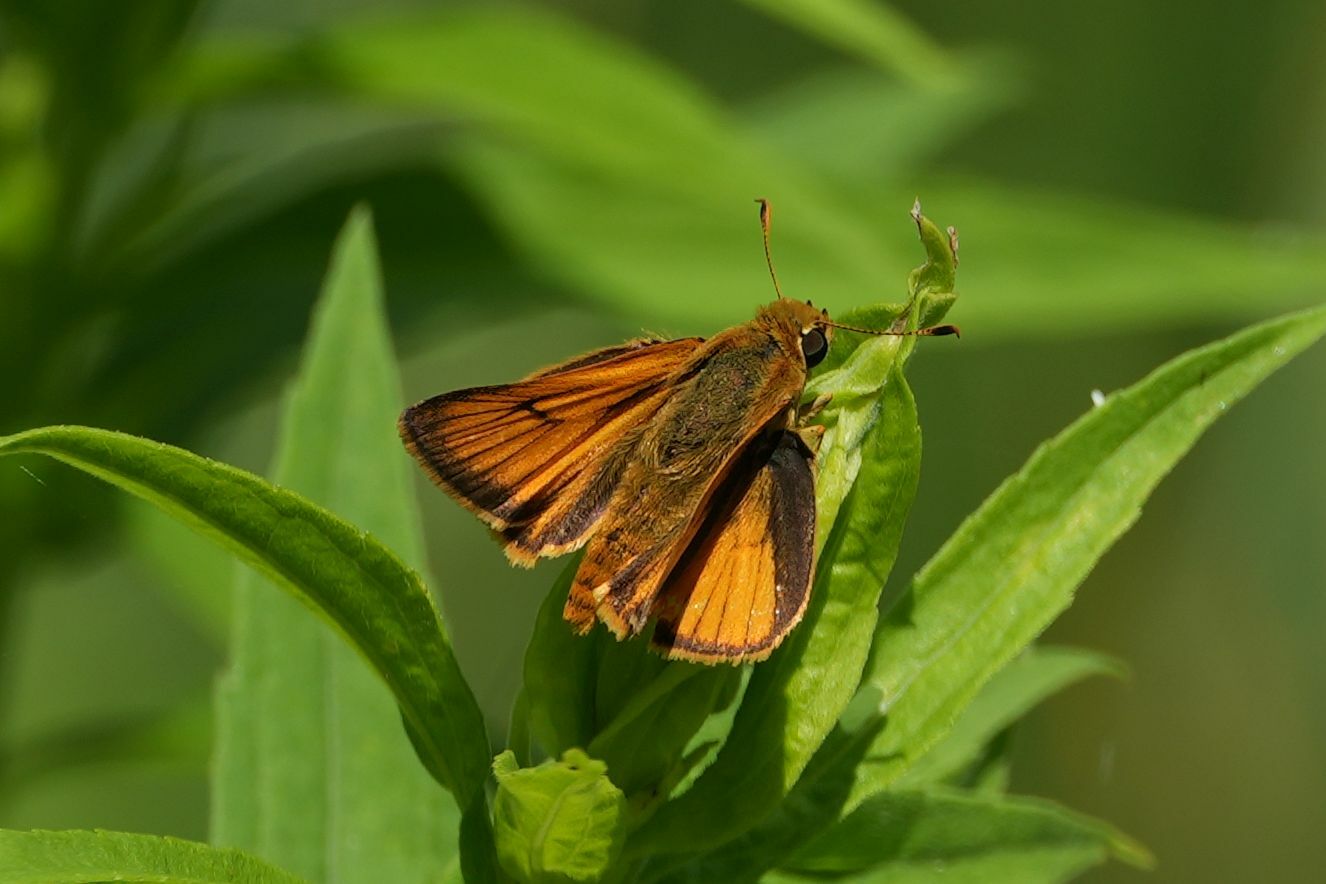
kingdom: Animalia
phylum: Arthropoda
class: Insecta
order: Lepidoptera
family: Hesperiidae
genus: Atrytone
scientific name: Atrytone delaware
